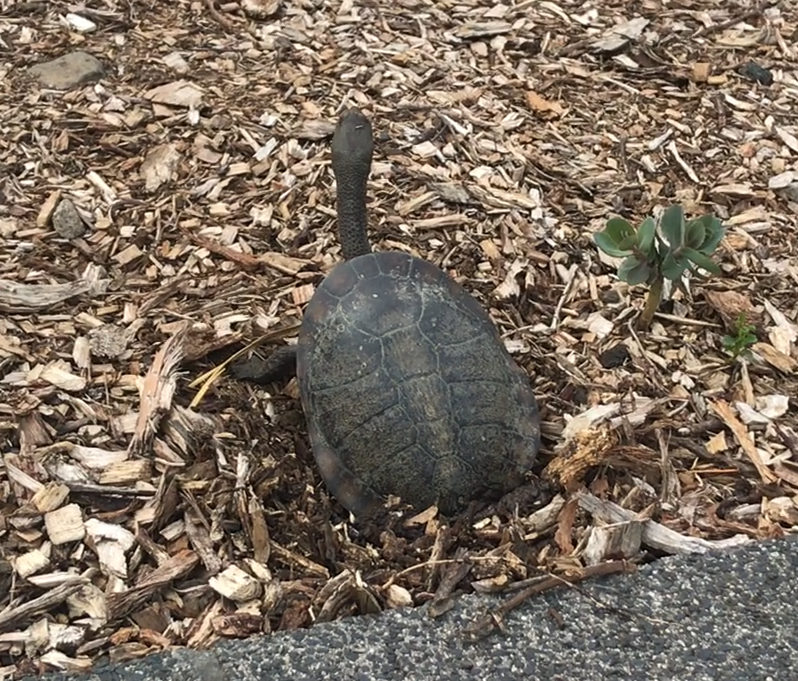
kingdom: Animalia
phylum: Chordata
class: Testudines
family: Chelidae
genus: Chelodina
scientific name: Chelodina longicollis
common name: Eastern snake-necked turtle
